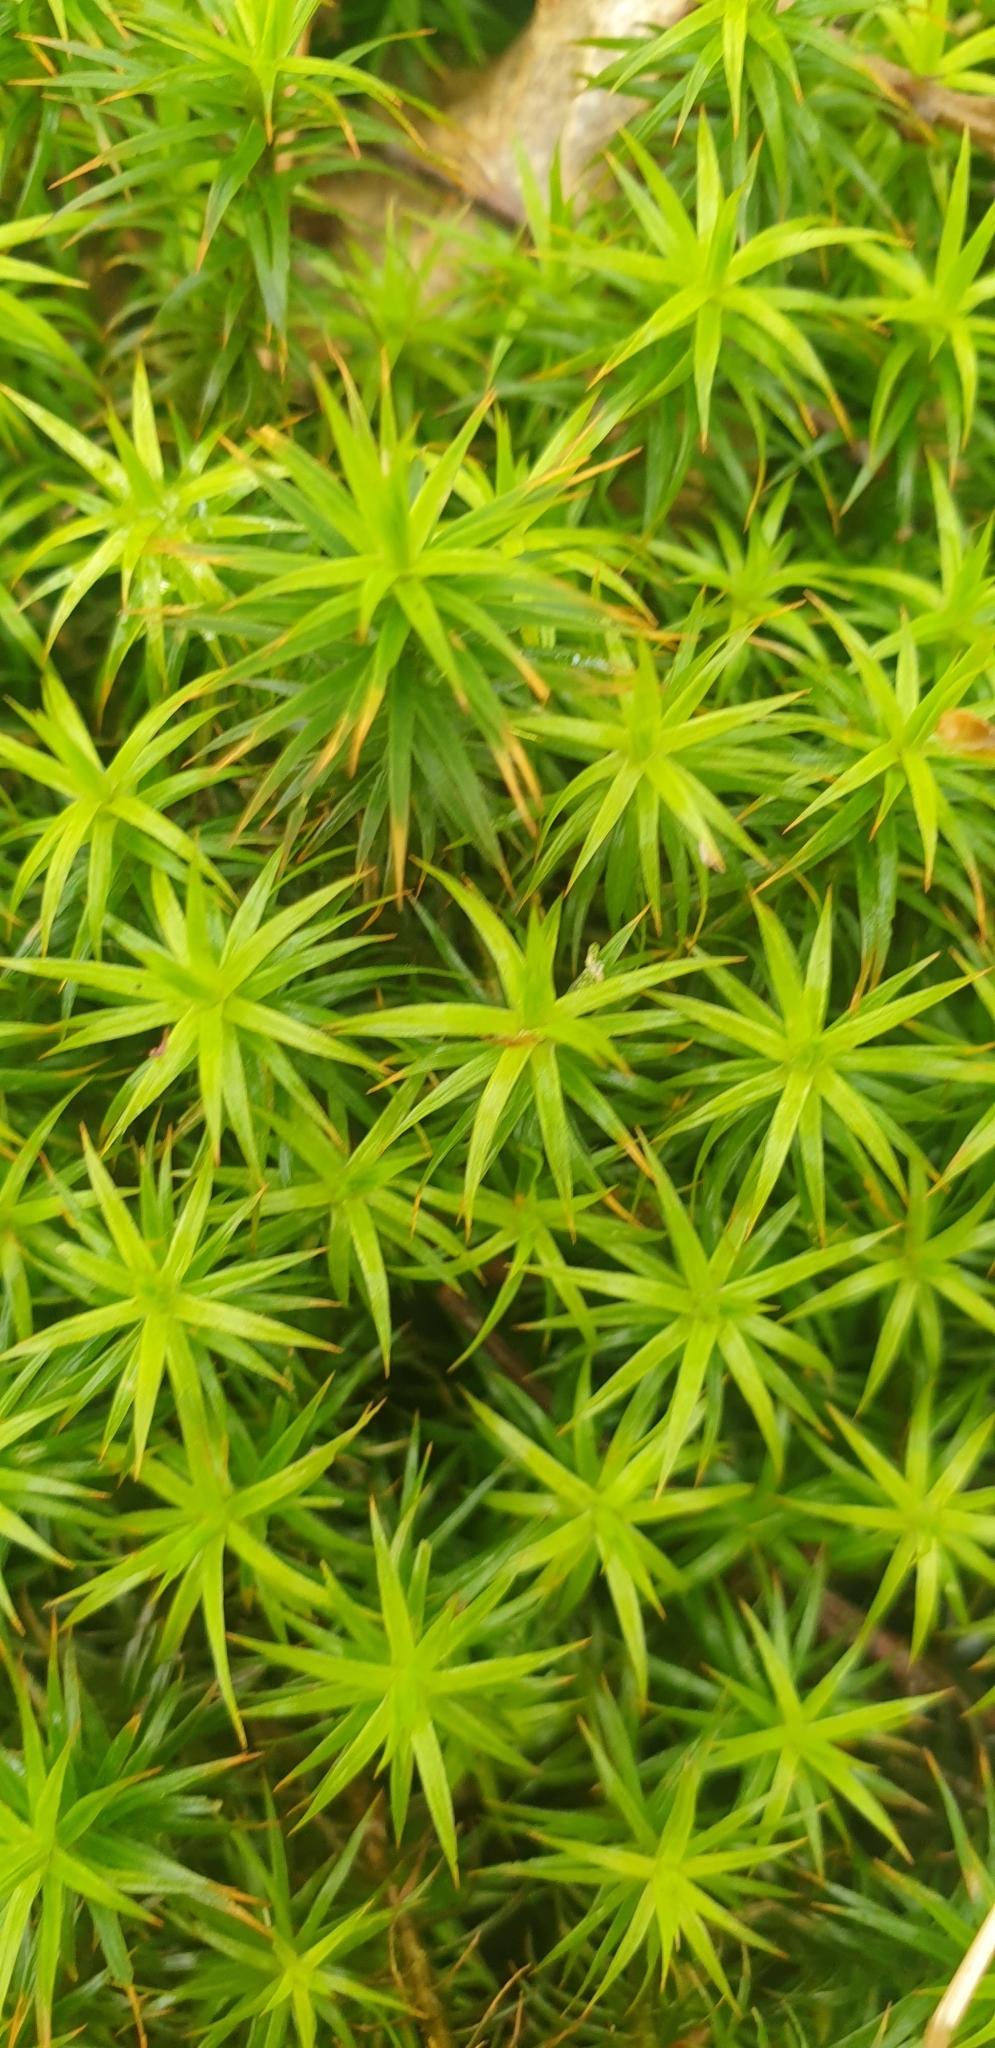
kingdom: Plantae
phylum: Bryophyta
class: Polytrichopsida
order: Polytrichales
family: Polytrichaceae
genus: Polytrichum
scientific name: Polytrichum formosum
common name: Bank haircap moss
